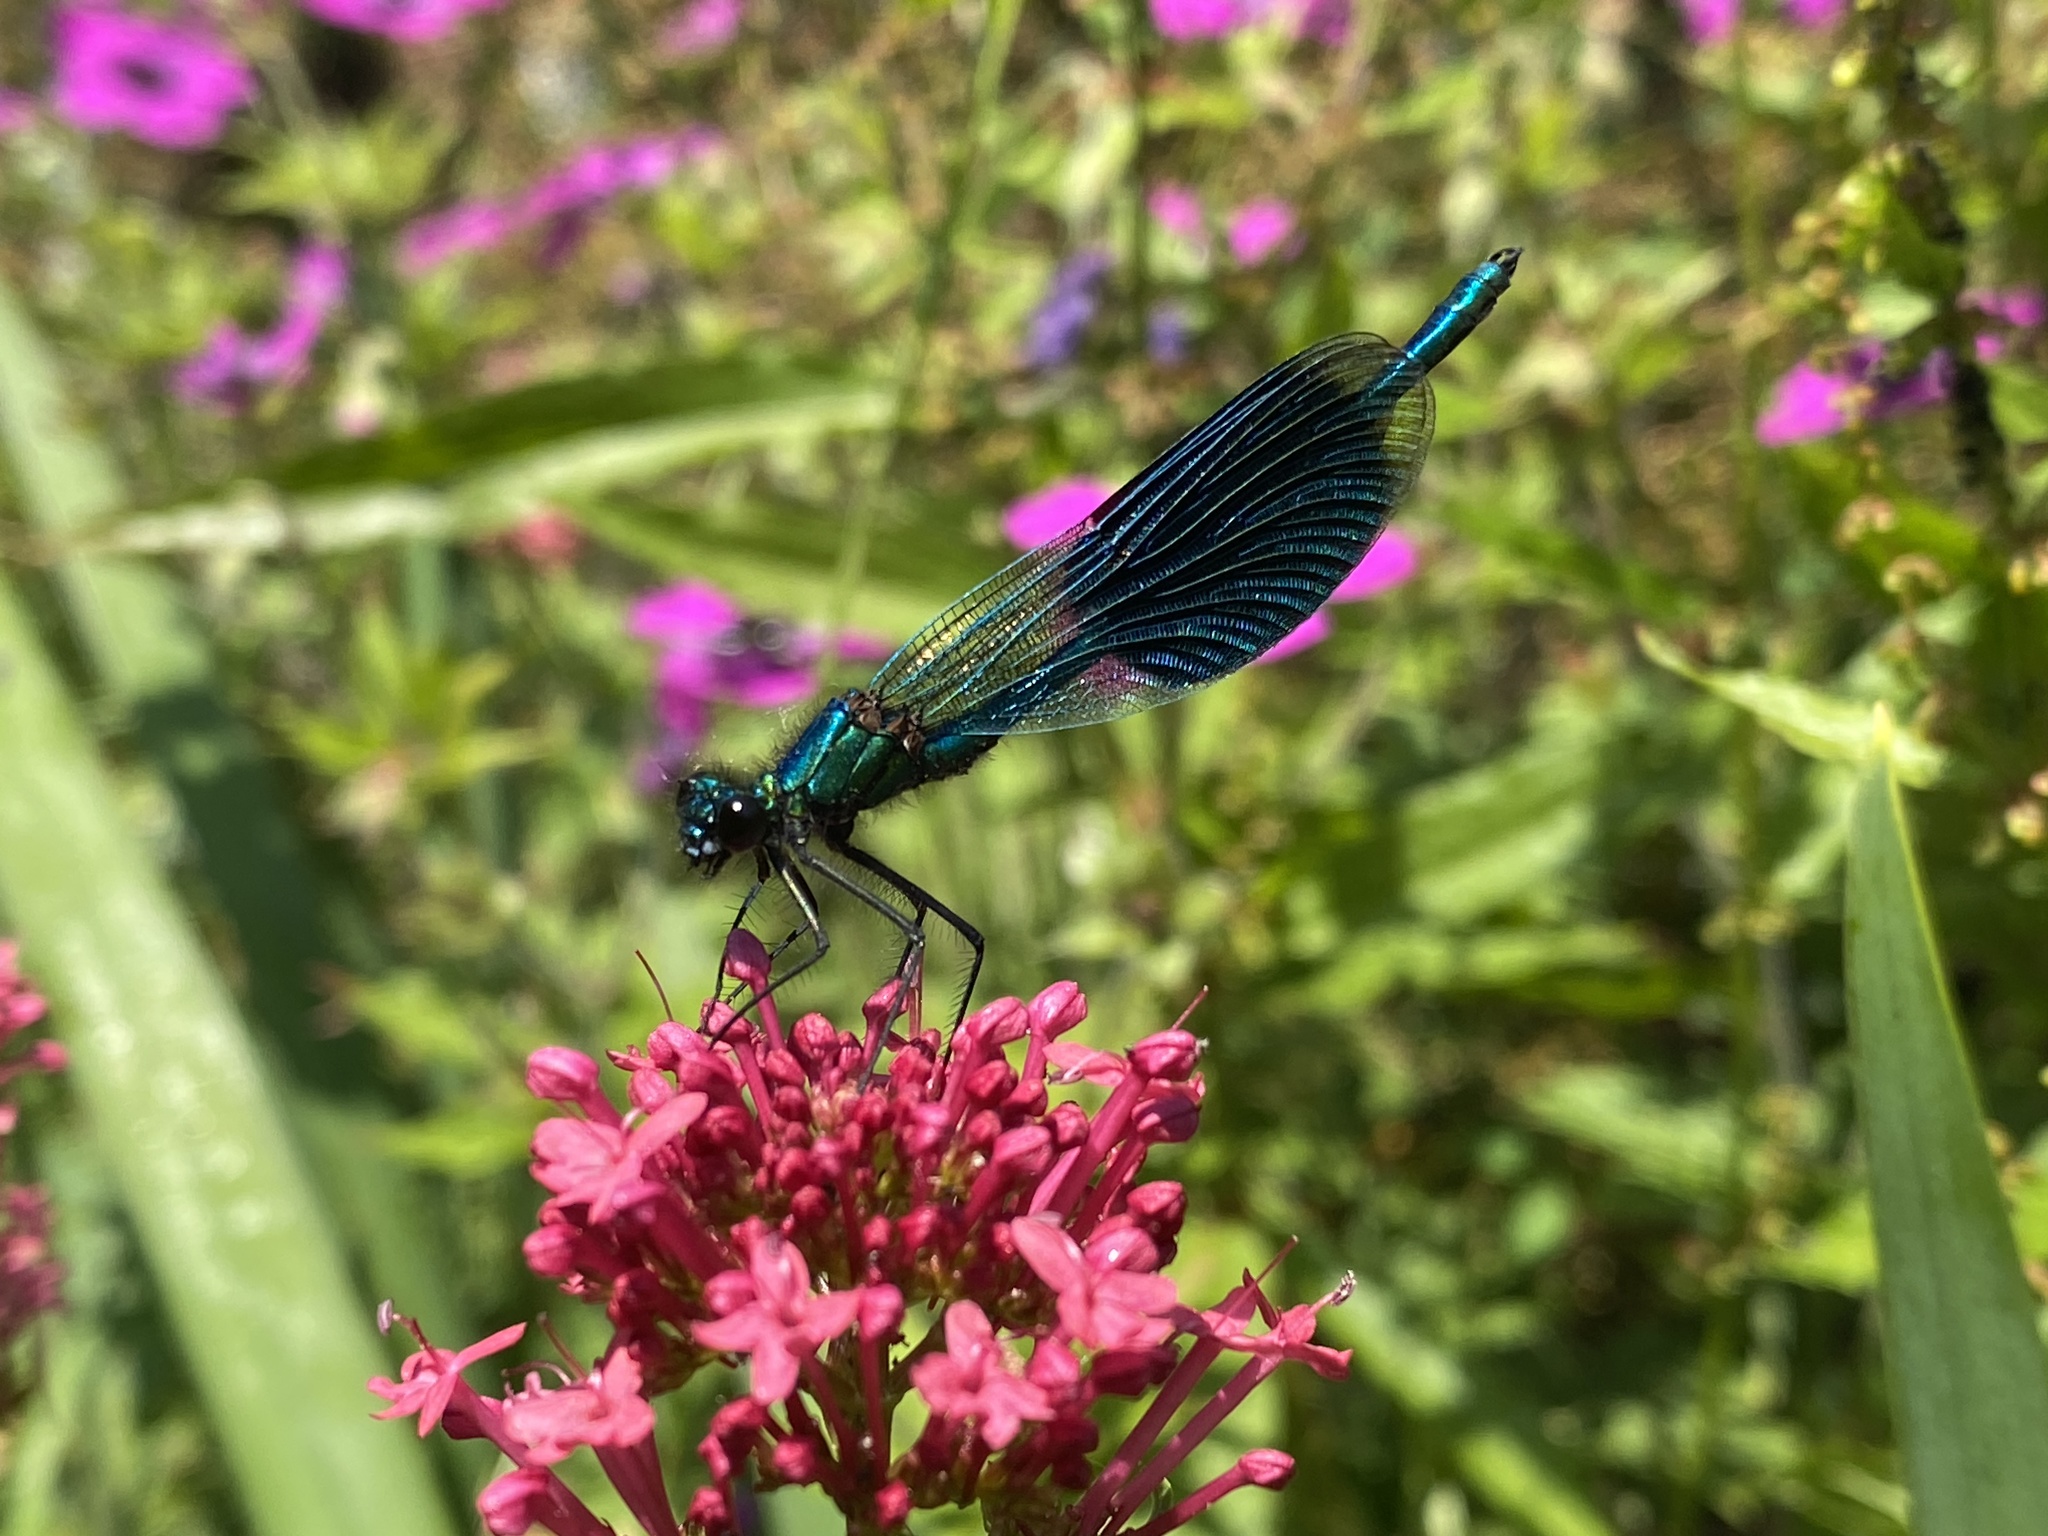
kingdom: Animalia
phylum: Arthropoda
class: Insecta
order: Odonata
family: Calopterygidae
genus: Calopteryx
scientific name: Calopteryx splendens
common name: Banded demoiselle
